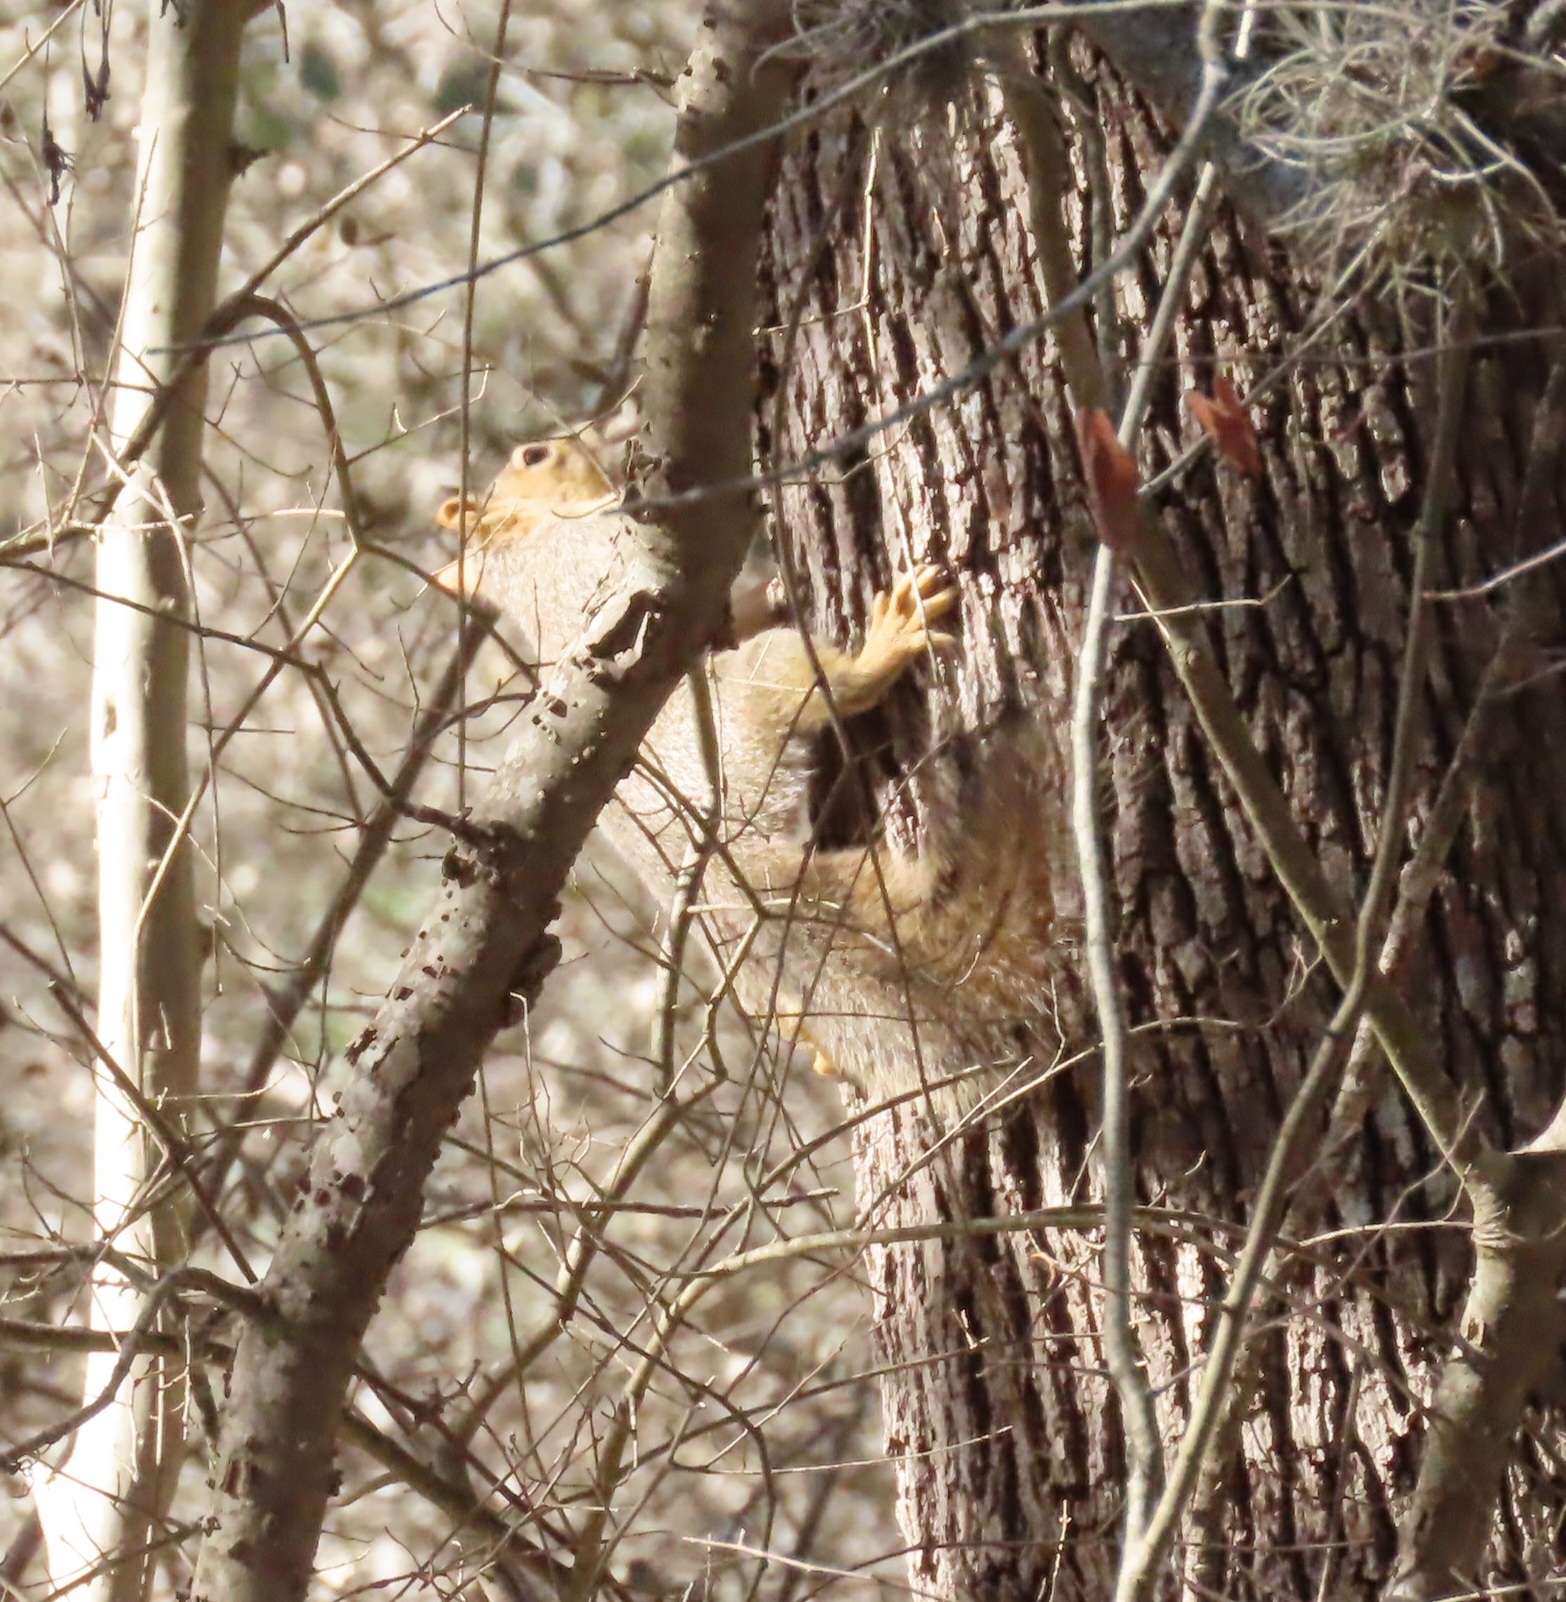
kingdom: Animalia
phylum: Chordata
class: Mammalia
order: Rodentia
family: Sciuridae
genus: Sciurus
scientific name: Sciurus niger
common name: Fox squirrel
